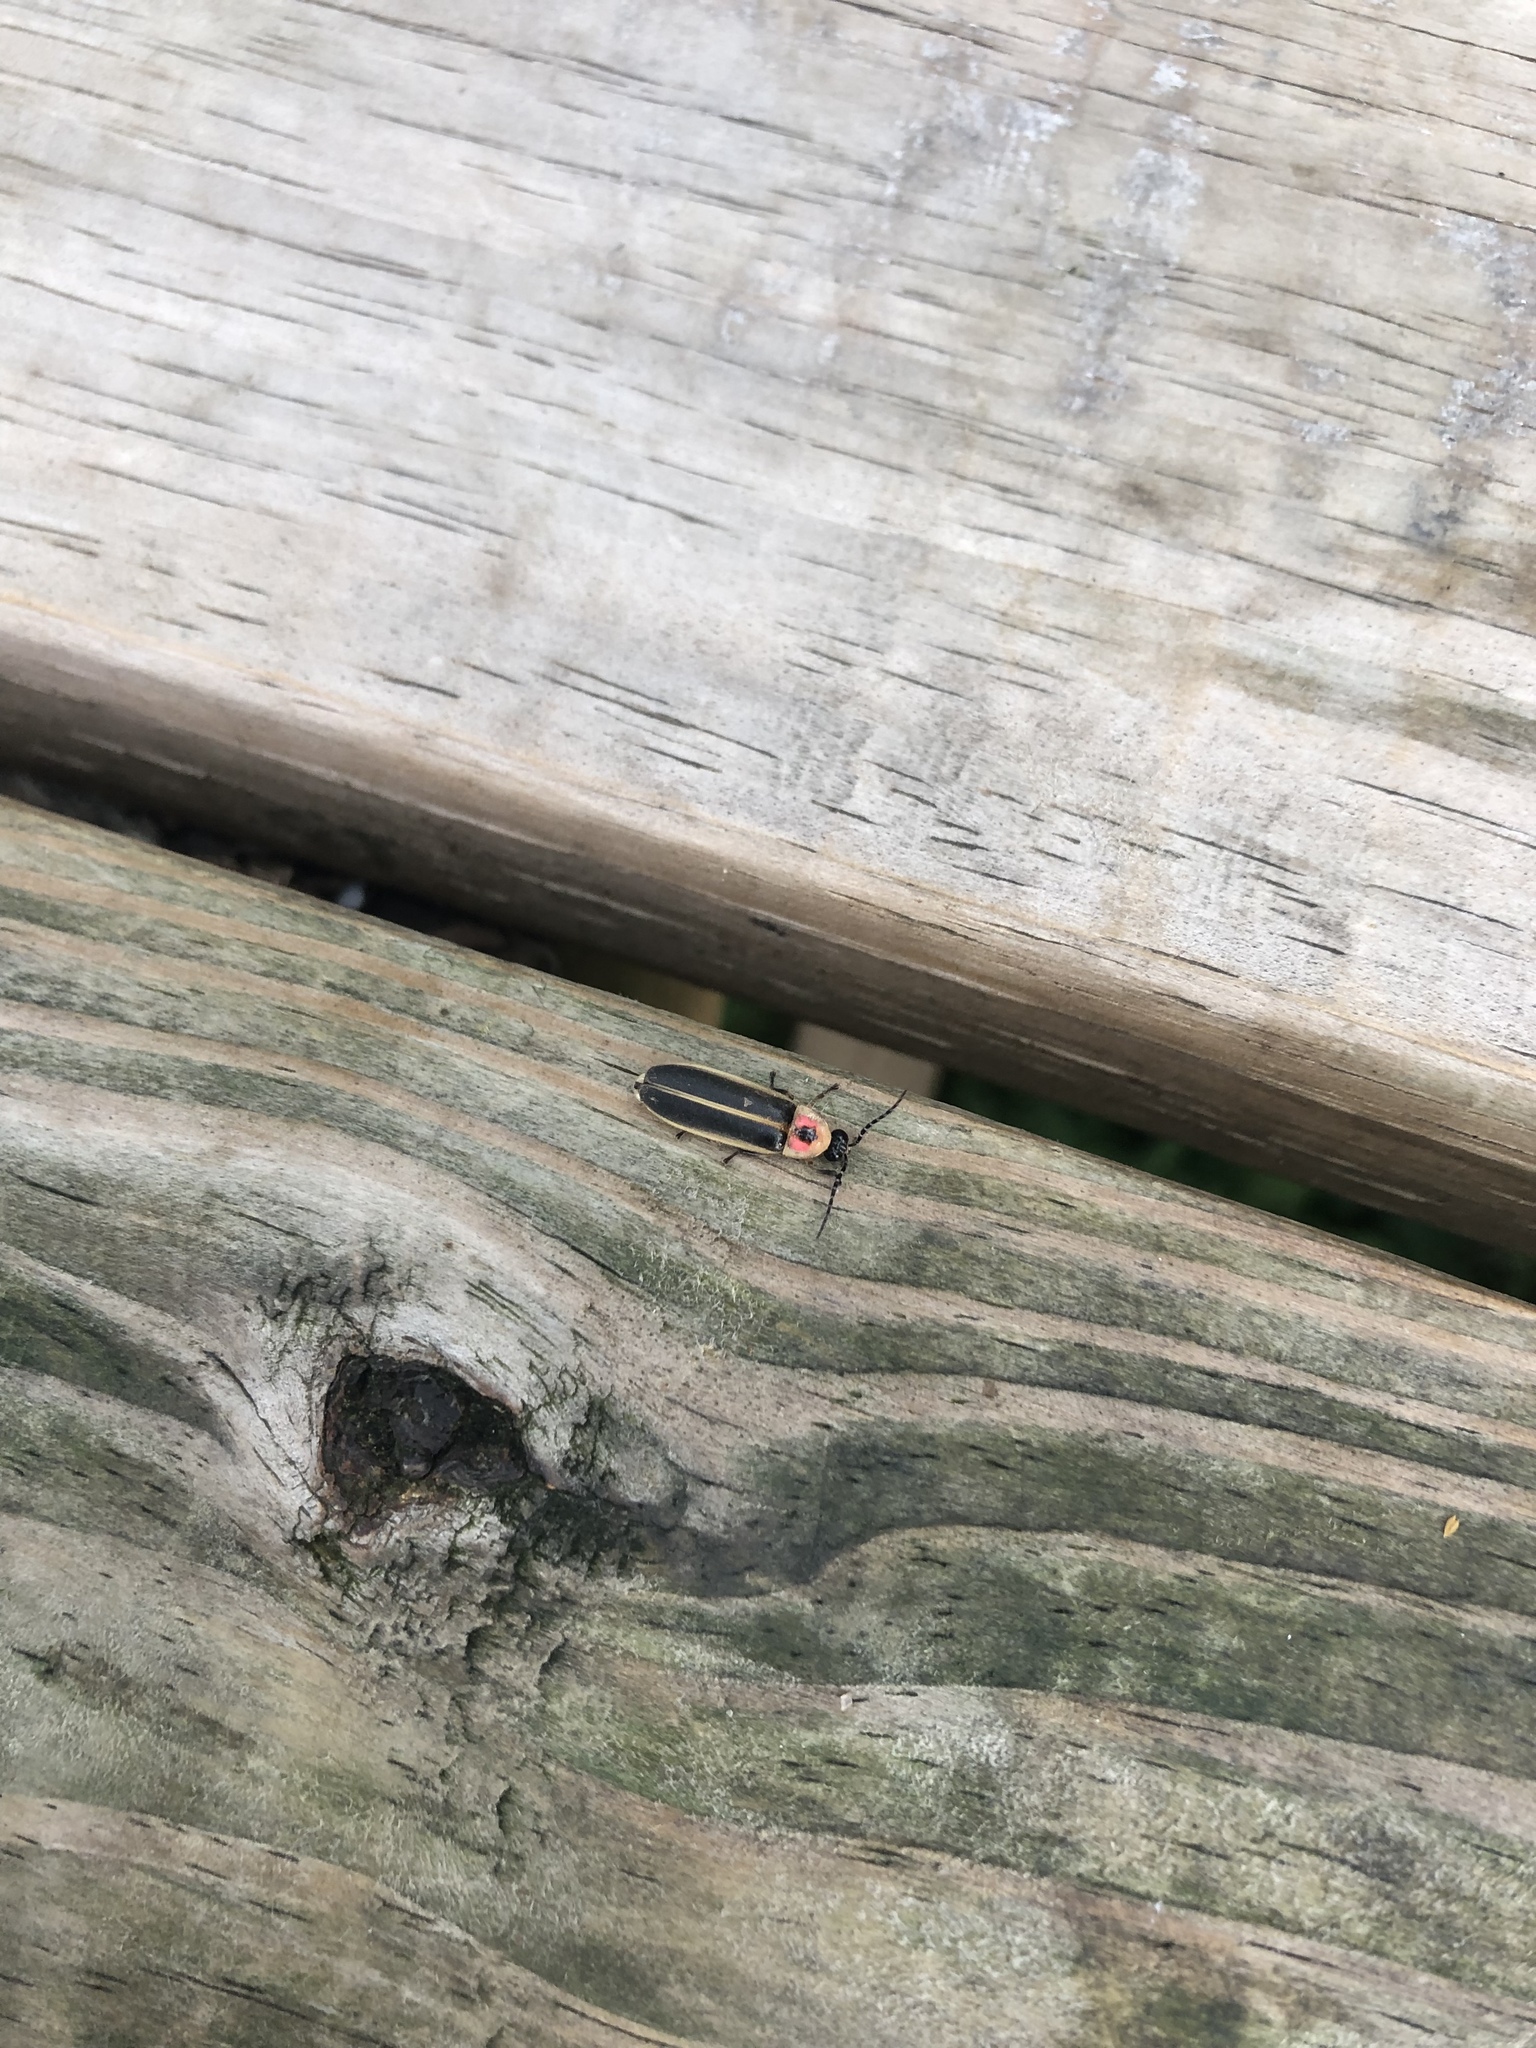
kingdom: Animalia
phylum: Arthropoda
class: Insecta
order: Coleoptera
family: Lampyridae
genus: Photinus
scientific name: Photinus pyralis
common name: Big dipper firefly
